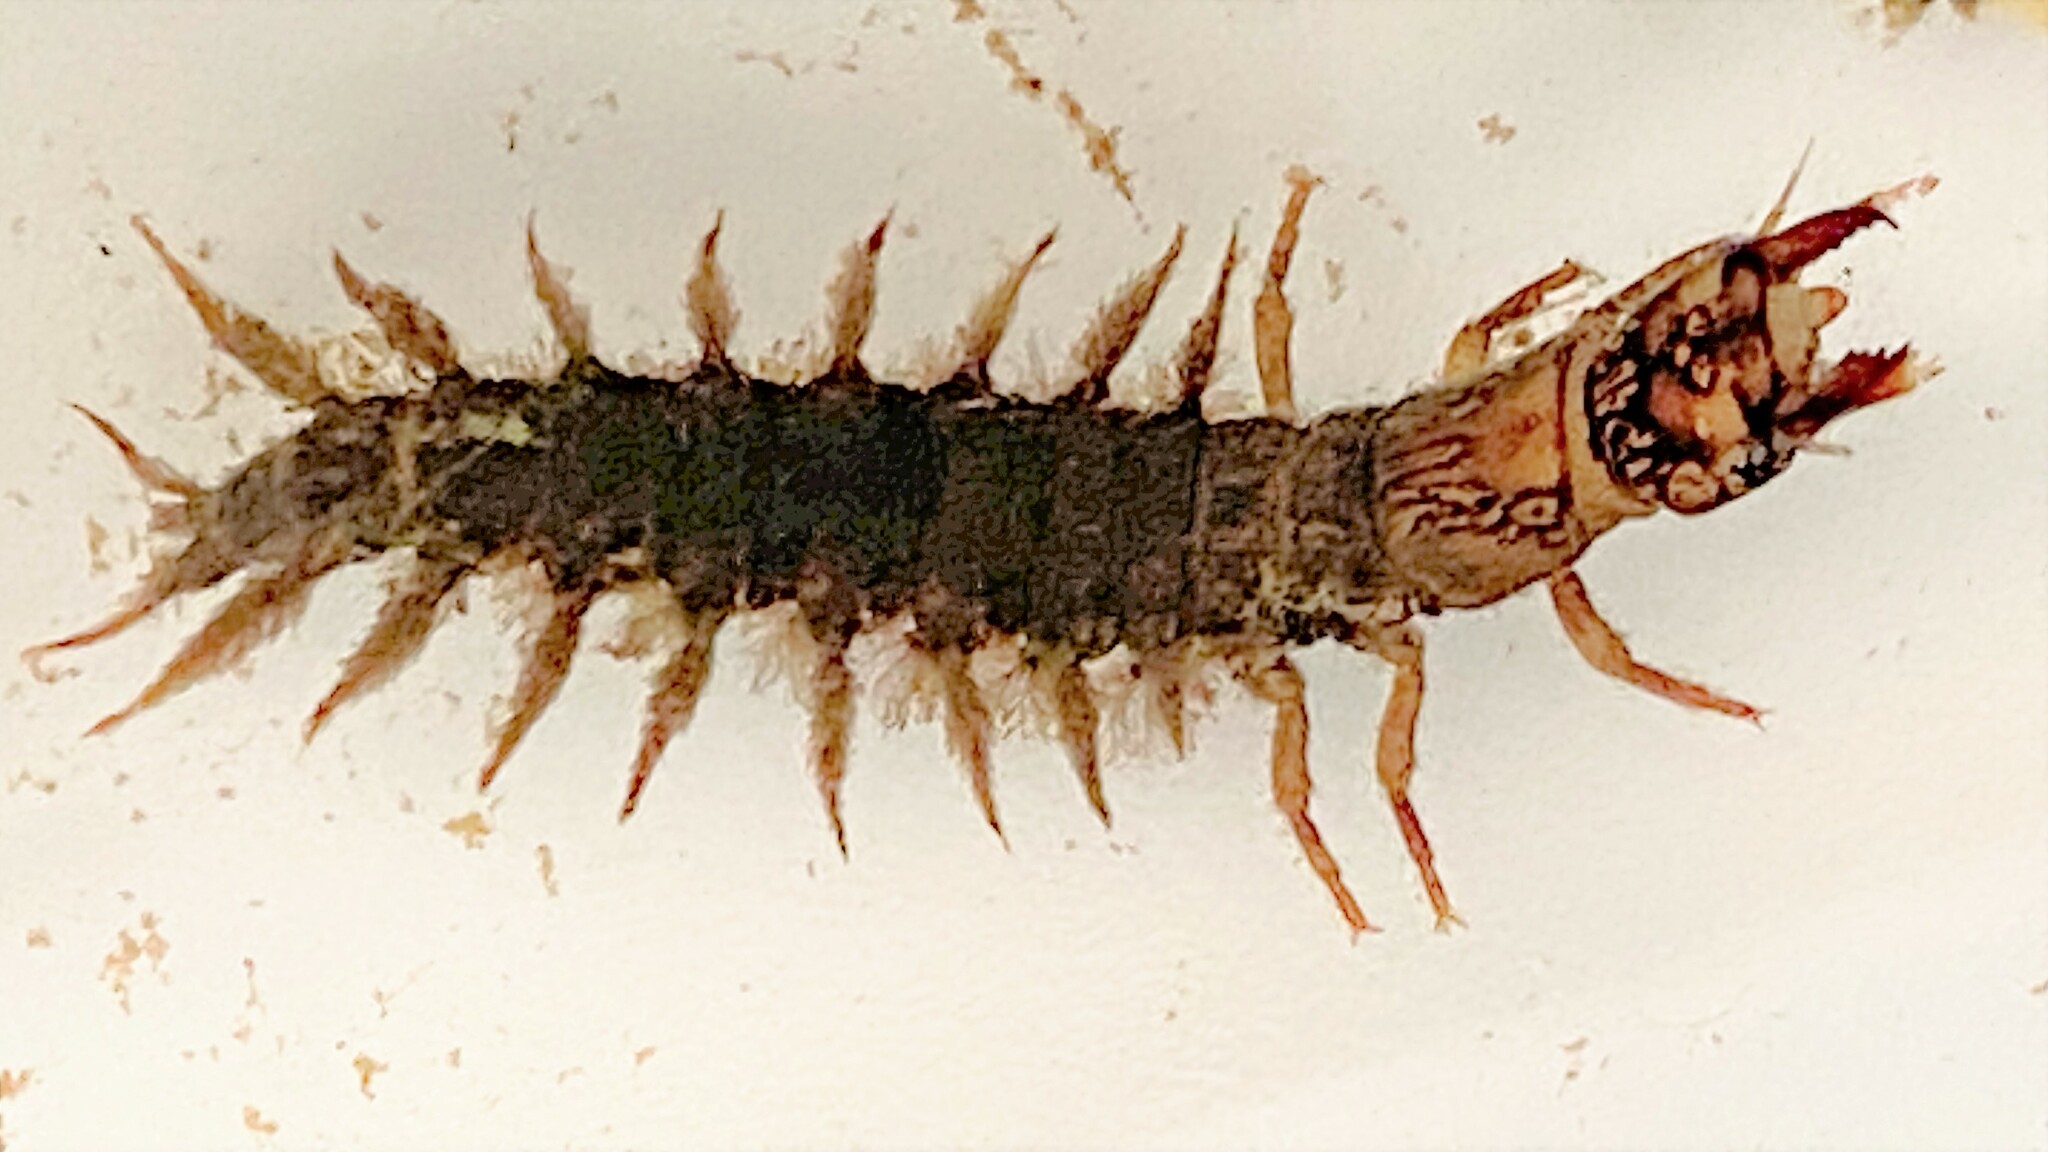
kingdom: Animalia
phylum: Arthropoda
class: Insecta
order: Megaloptera
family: Corydalidae
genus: Corydalus
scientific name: Corydalus cornutus
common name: Dobsonfly
